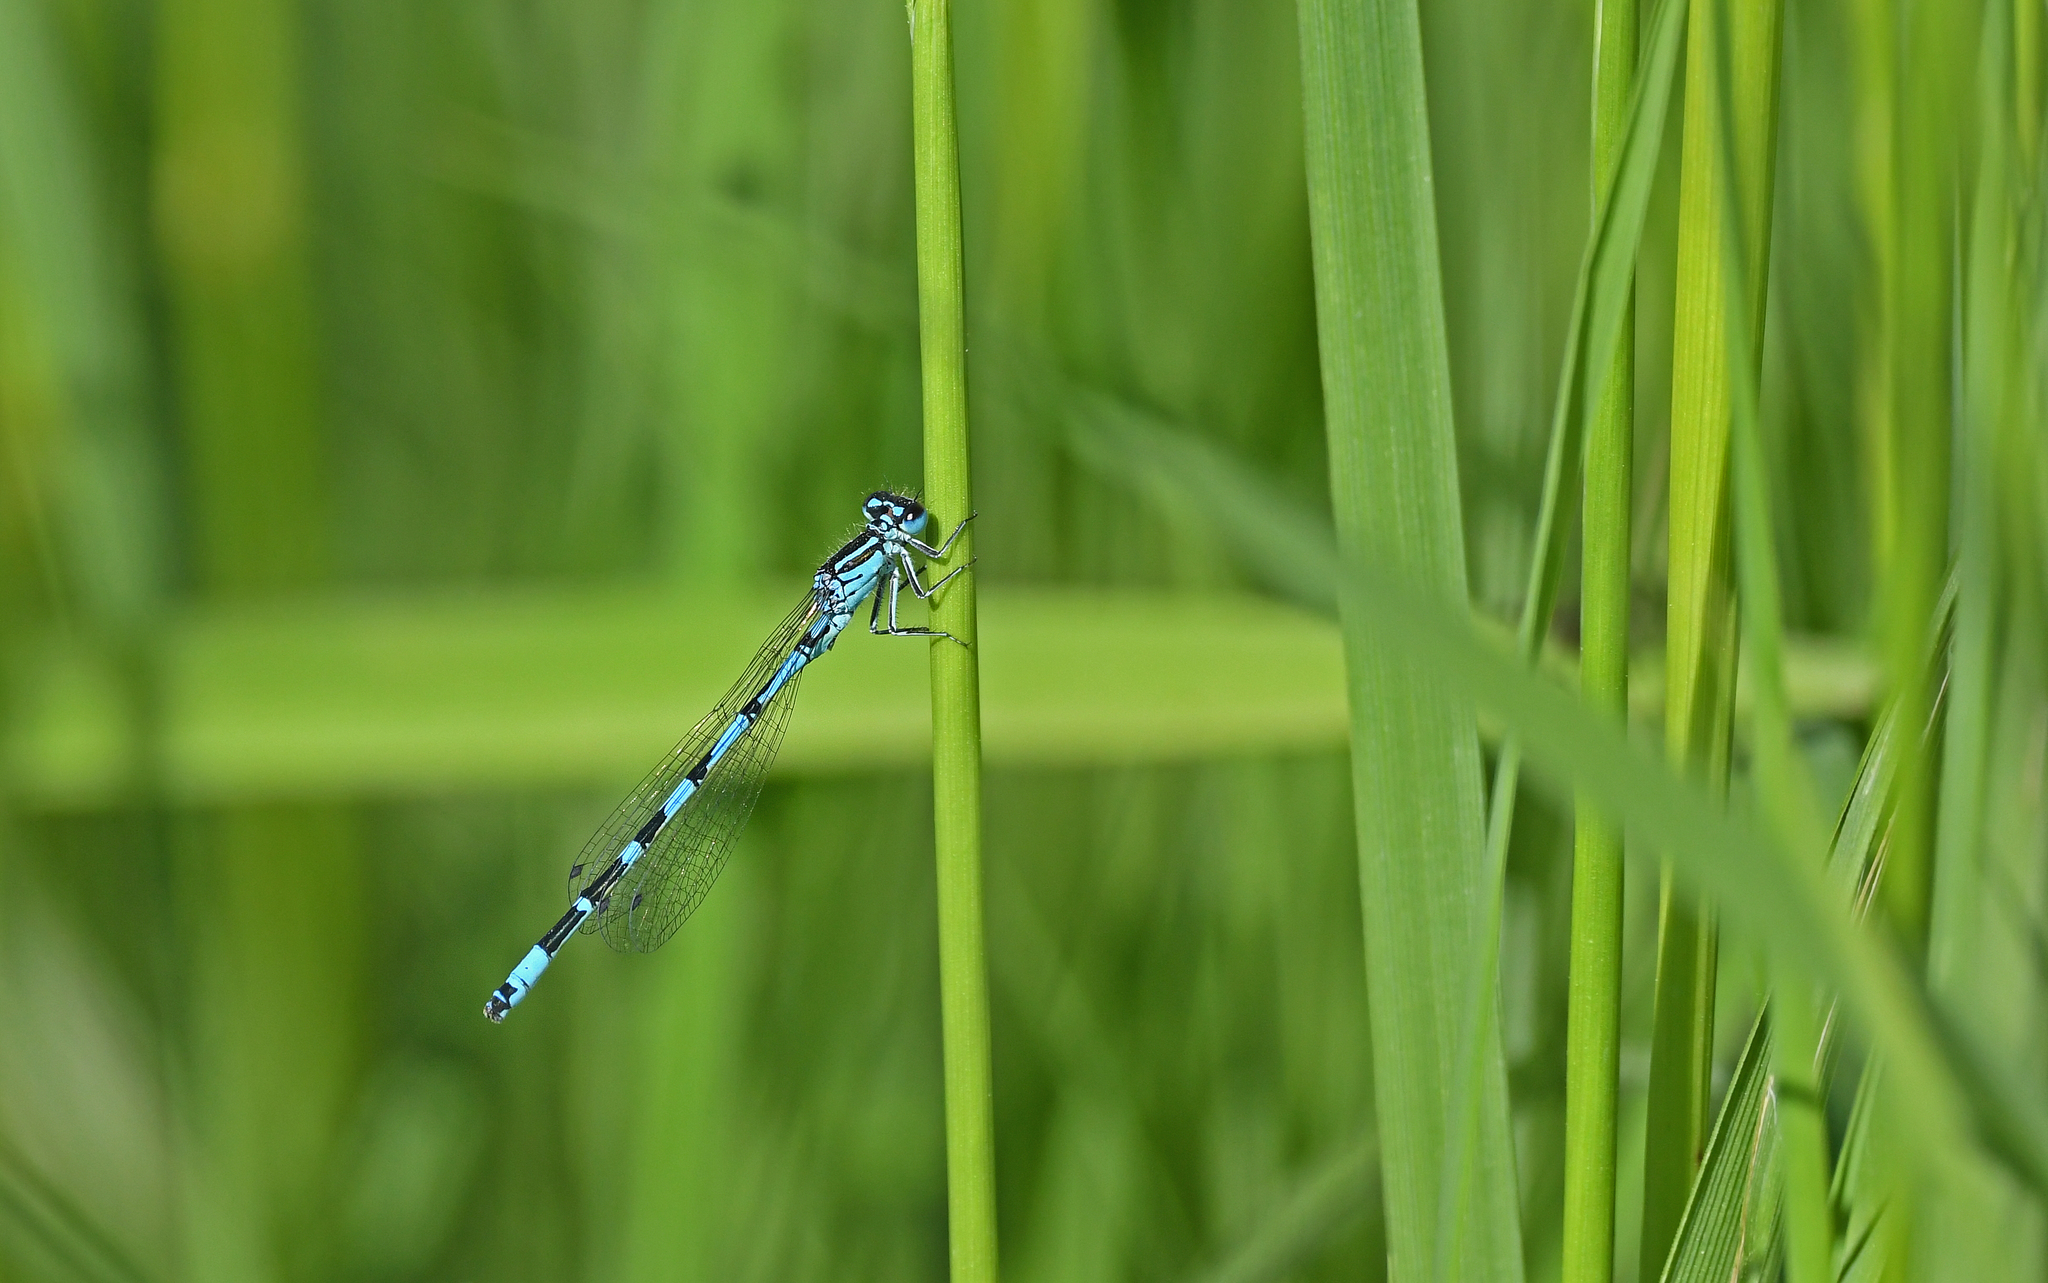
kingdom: Animalia
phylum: Arthropoda
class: Insecta
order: Odonata
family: Coenagrionidae
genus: Coenagrion
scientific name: Coenagrion ornatum
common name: Ornate bluet
